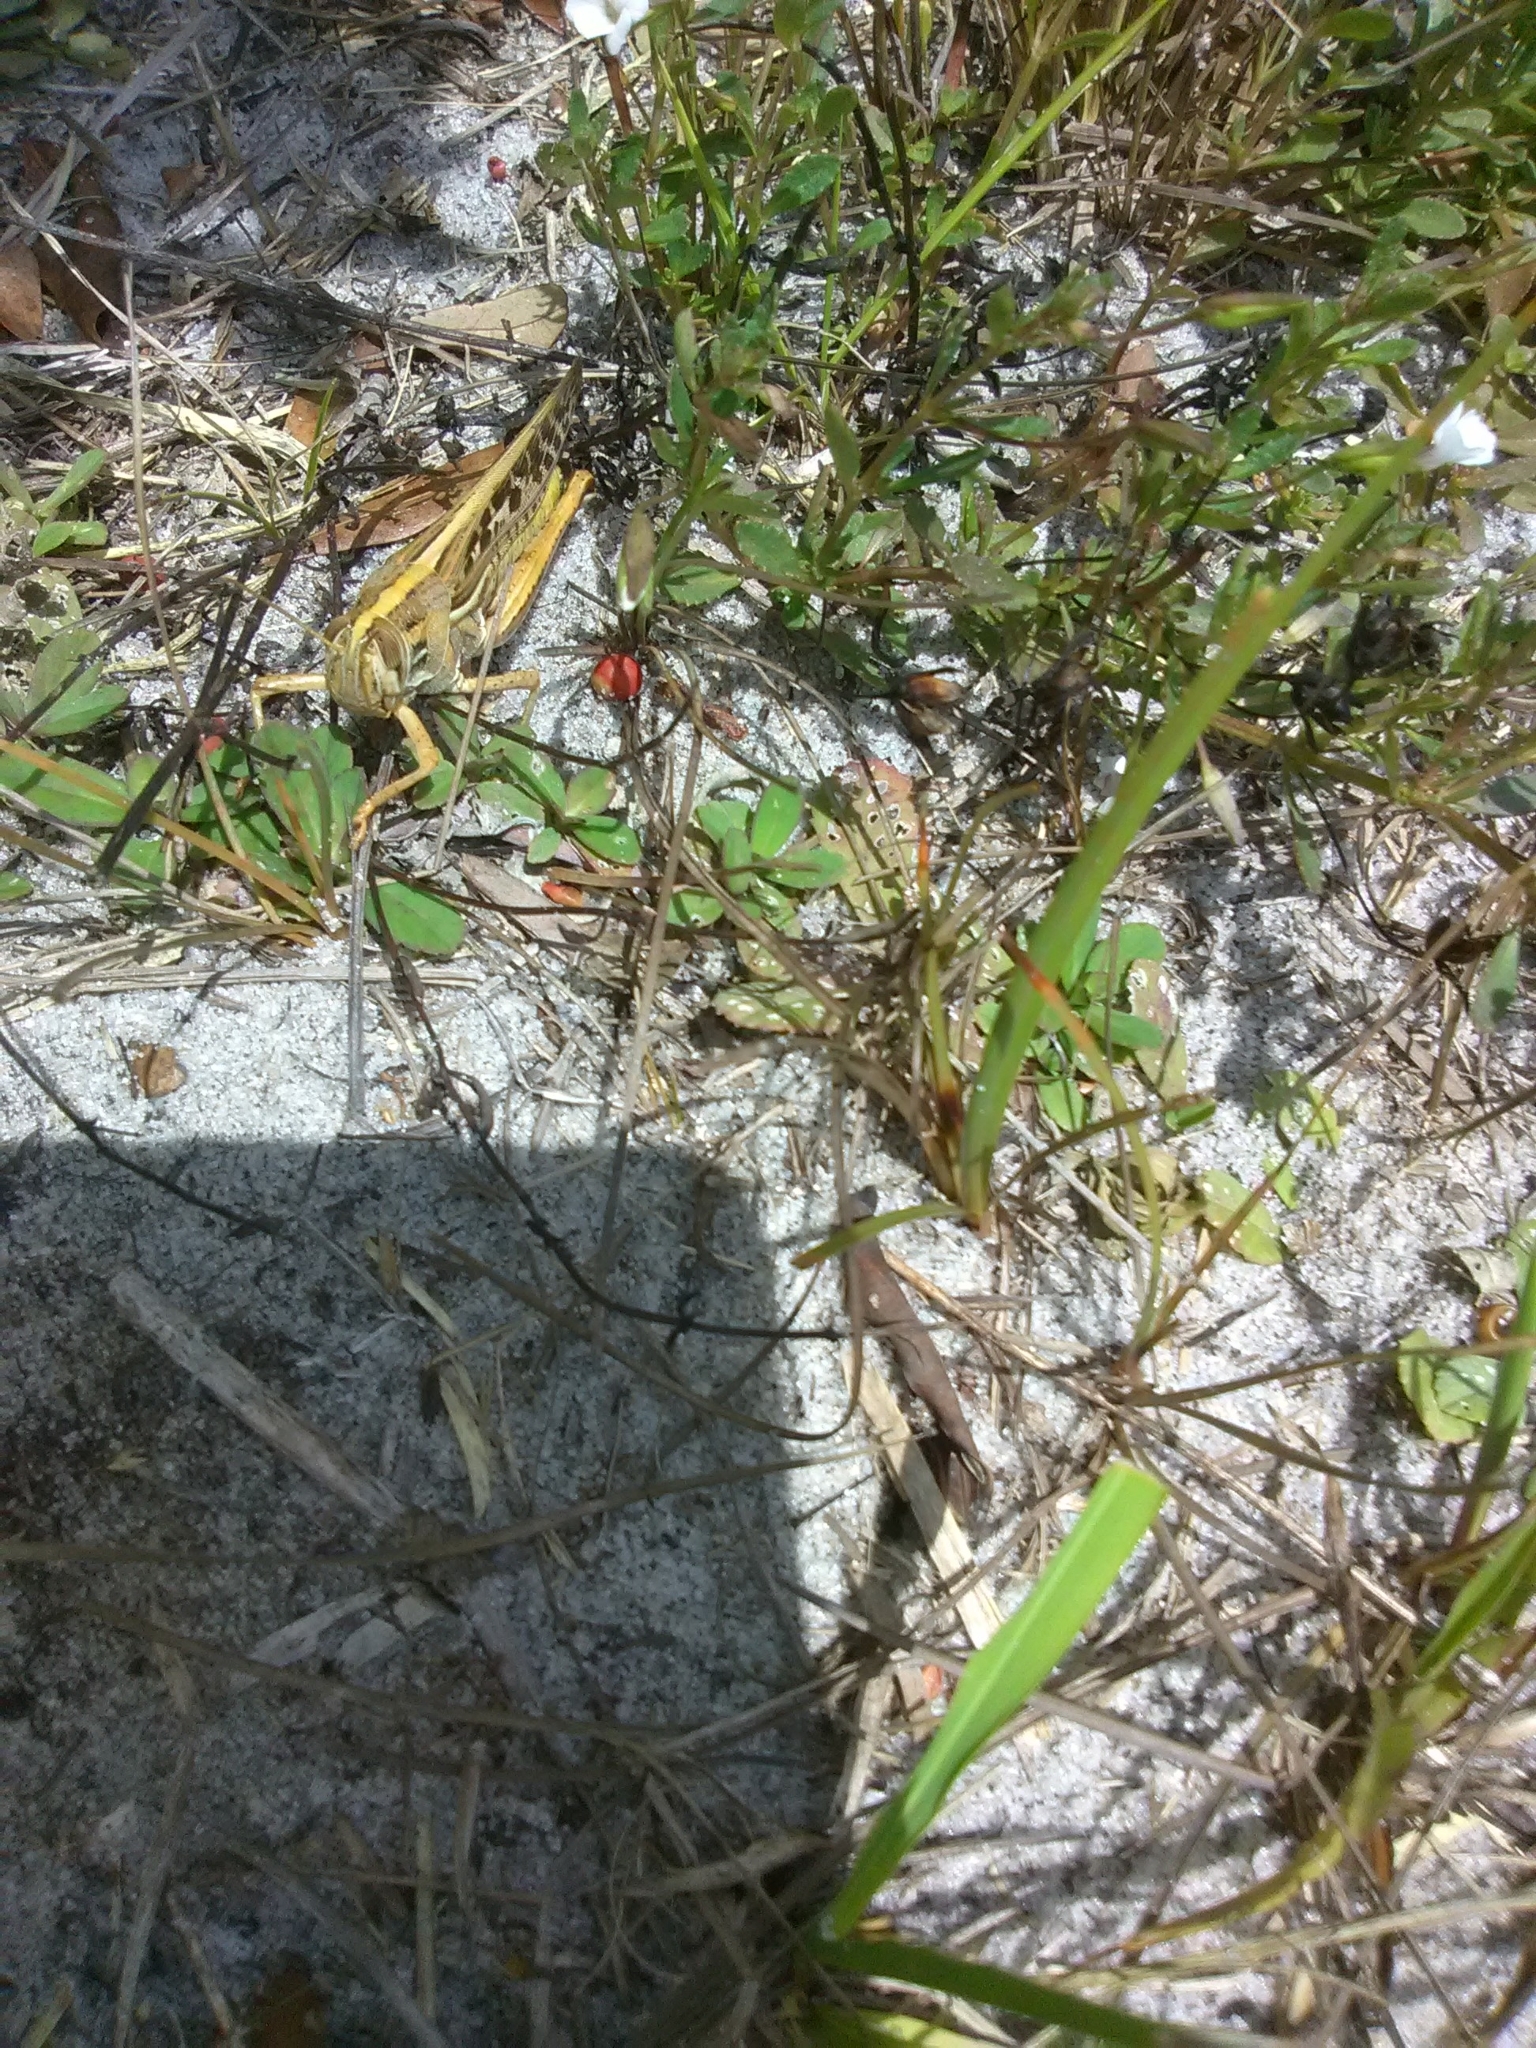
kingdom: Animalia
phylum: Arthropoda
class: Insecta
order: Orthoptera
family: Acrididae
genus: Schistocerca
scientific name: Schistocerca americana
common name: American bird locust
